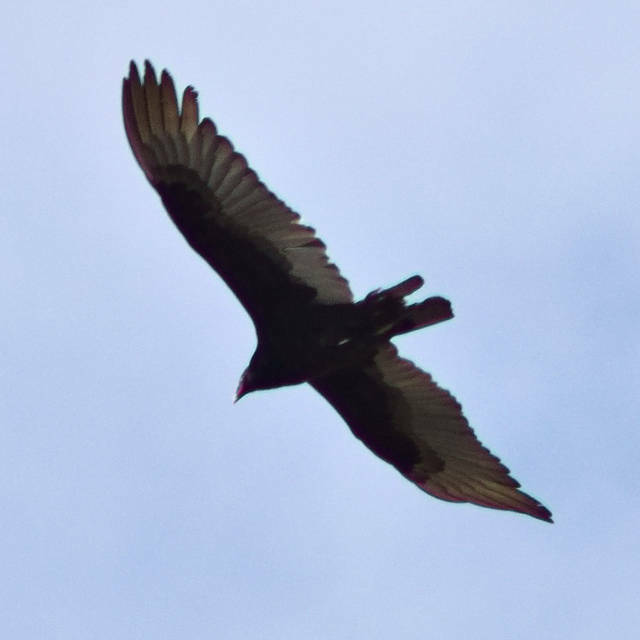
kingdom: Animalia
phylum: Chordata
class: Aves
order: Accipitriformes
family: Cathartidae
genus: Cathartes
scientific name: Cathartes aura
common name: Turkey vulture
